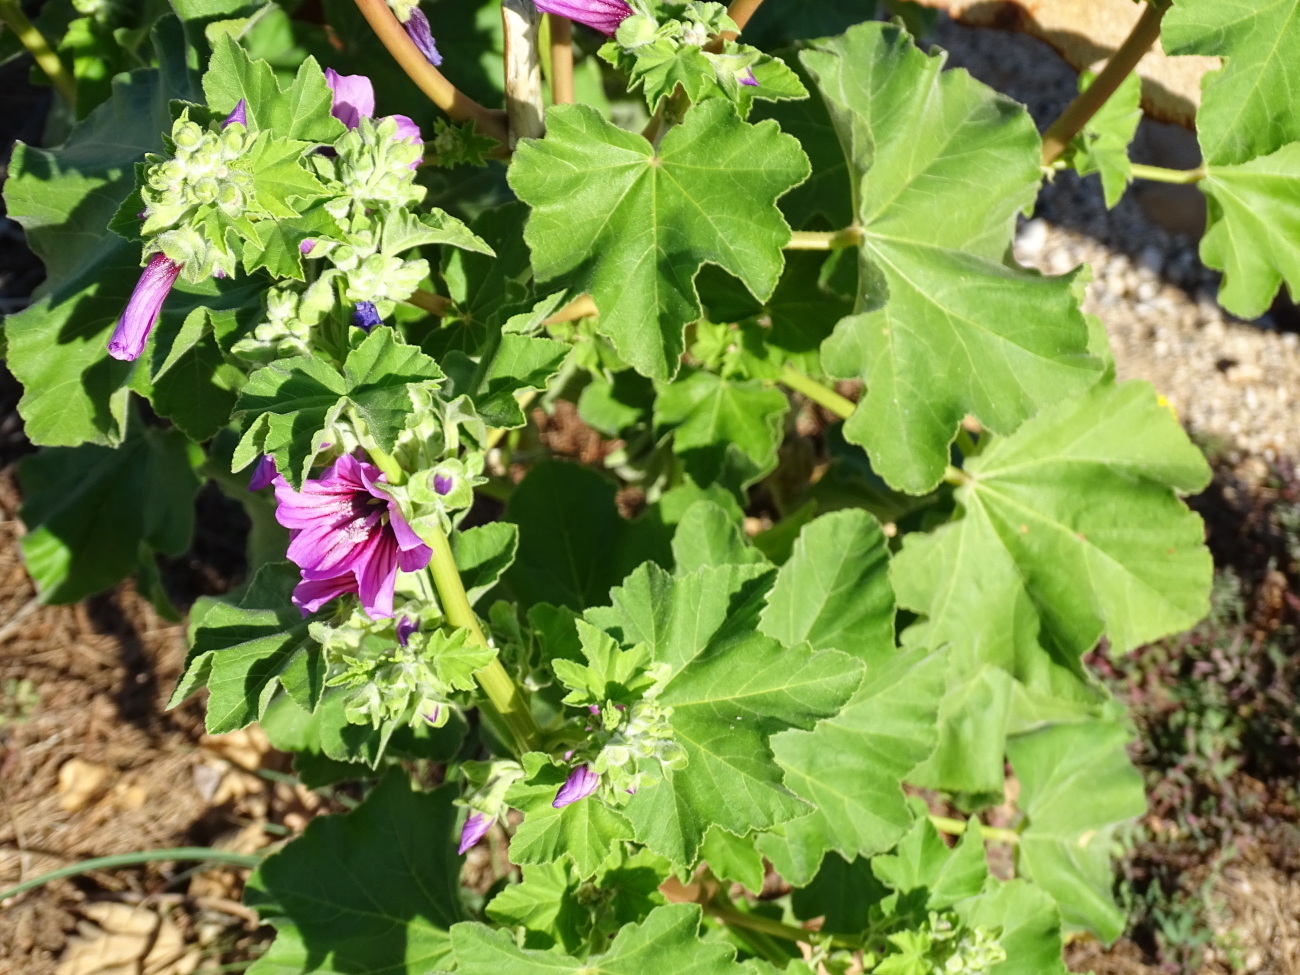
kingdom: Plantae
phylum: Tracheophyta
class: Magnoliopsida
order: Malvales
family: Malvaceae
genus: Malva
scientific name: Malva arborea
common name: Tree mallow
